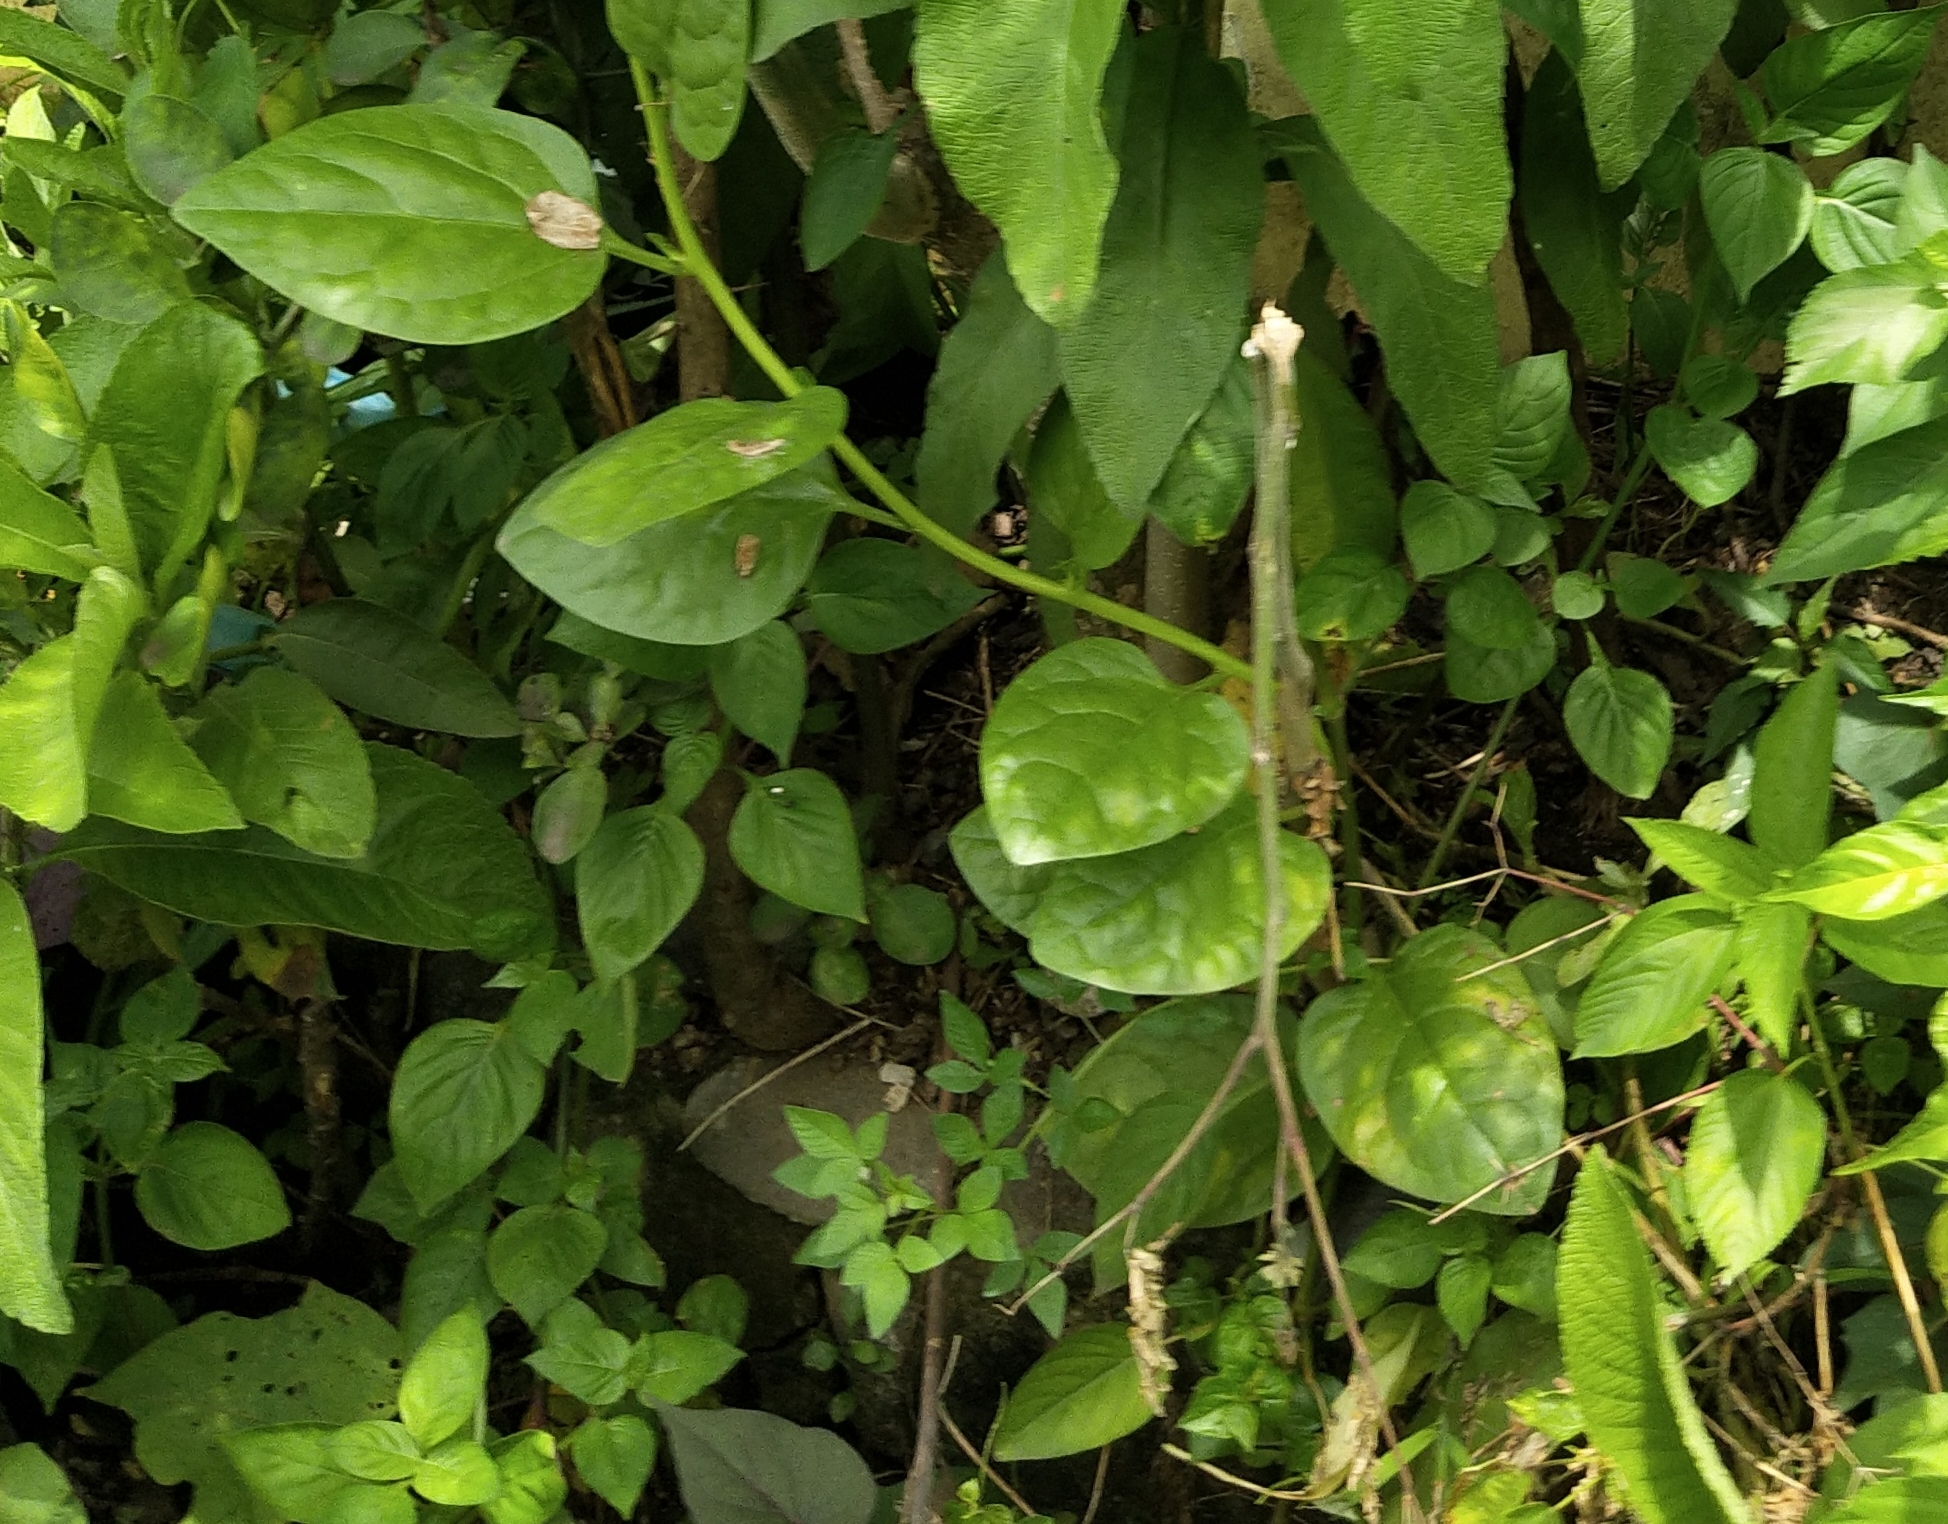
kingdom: Plantae
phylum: Tracheophyta
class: Magnoliopsida
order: Caryophyllales
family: Basellaceae
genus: Basella
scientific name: Basella alba
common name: Indian spinach
